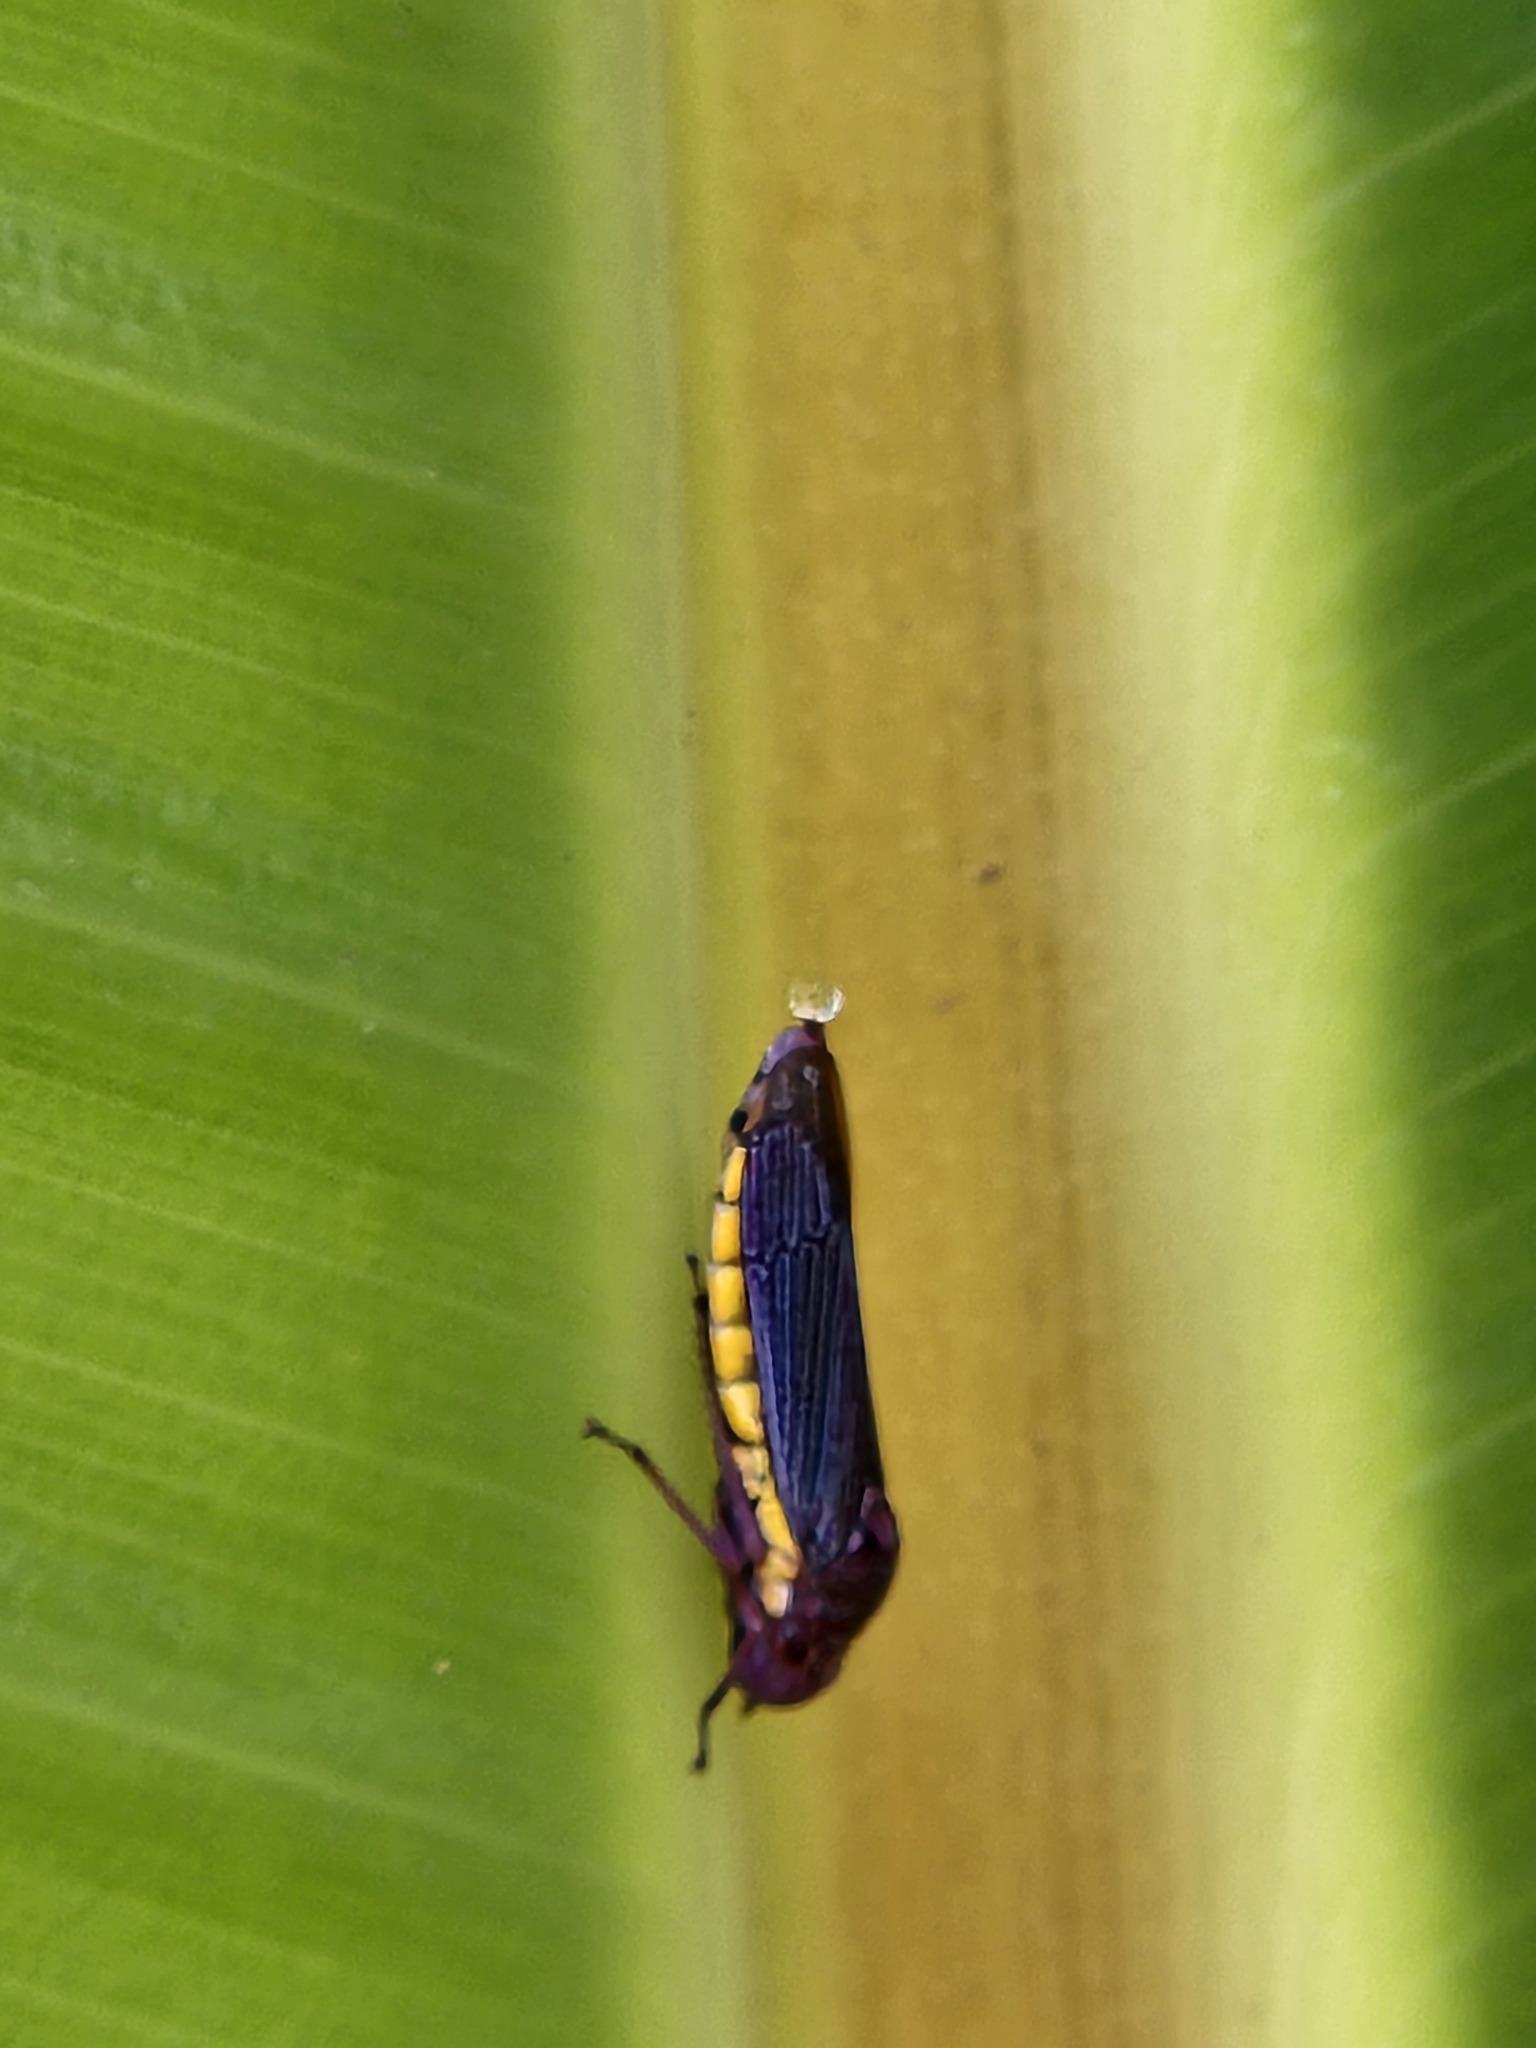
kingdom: Animalia
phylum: Arthropoda
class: Insecta
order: Hemiptera
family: Cicadellidae
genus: Molomea
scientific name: Molomea consolida
